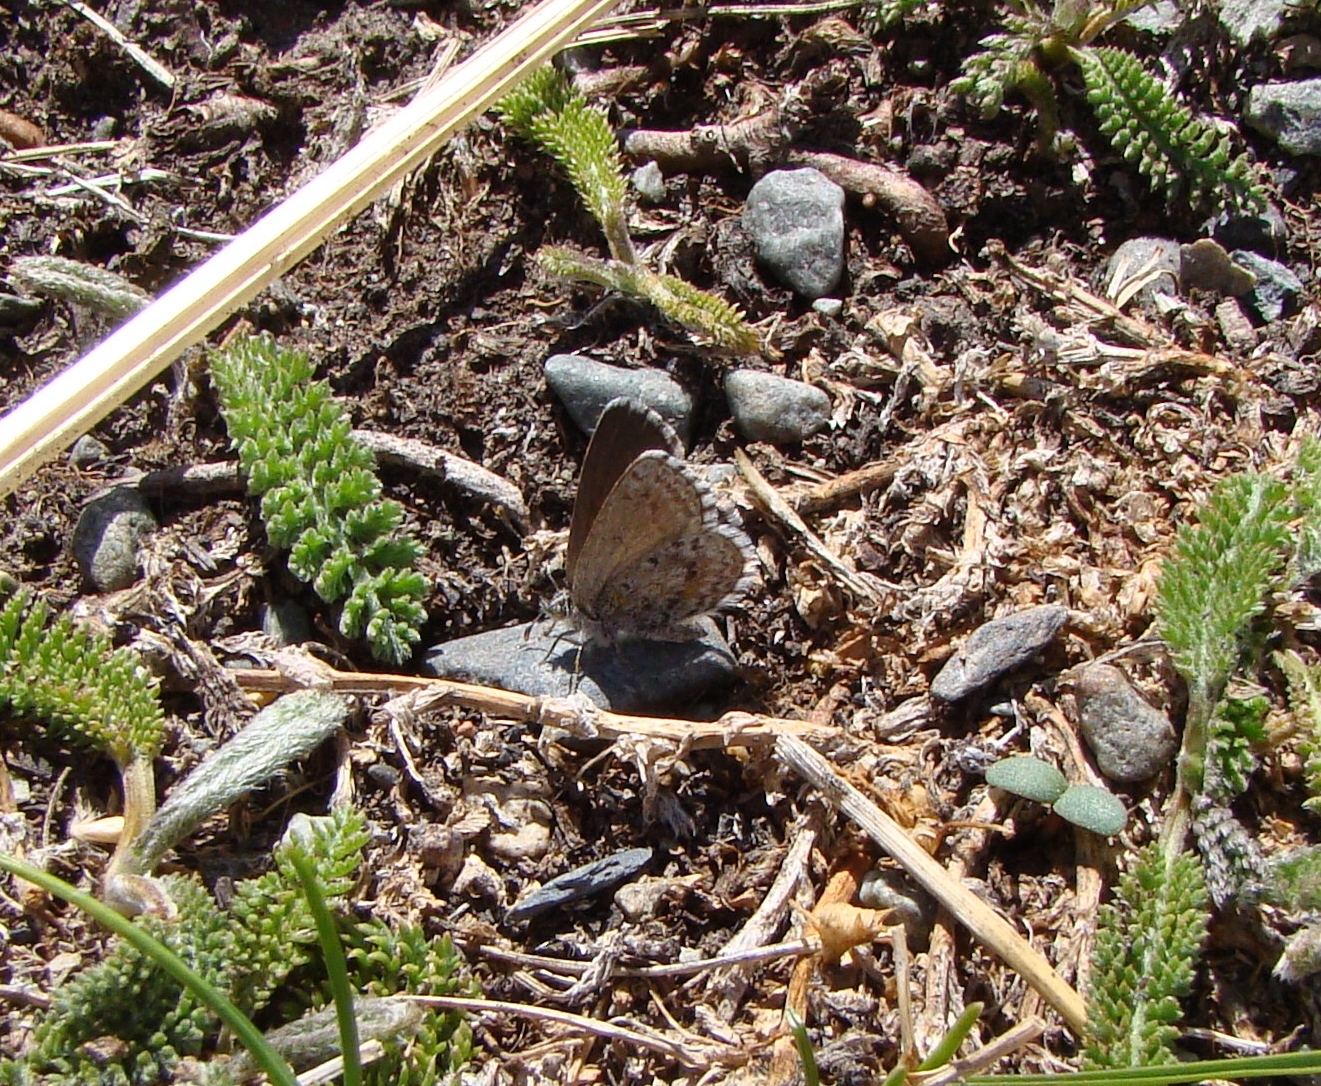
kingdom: Animalia
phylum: Arthropoda
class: Insecta
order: Lepidoptera
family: Lycaenidae
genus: Zizina
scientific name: Zizina oxleyi
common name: Southern blue
